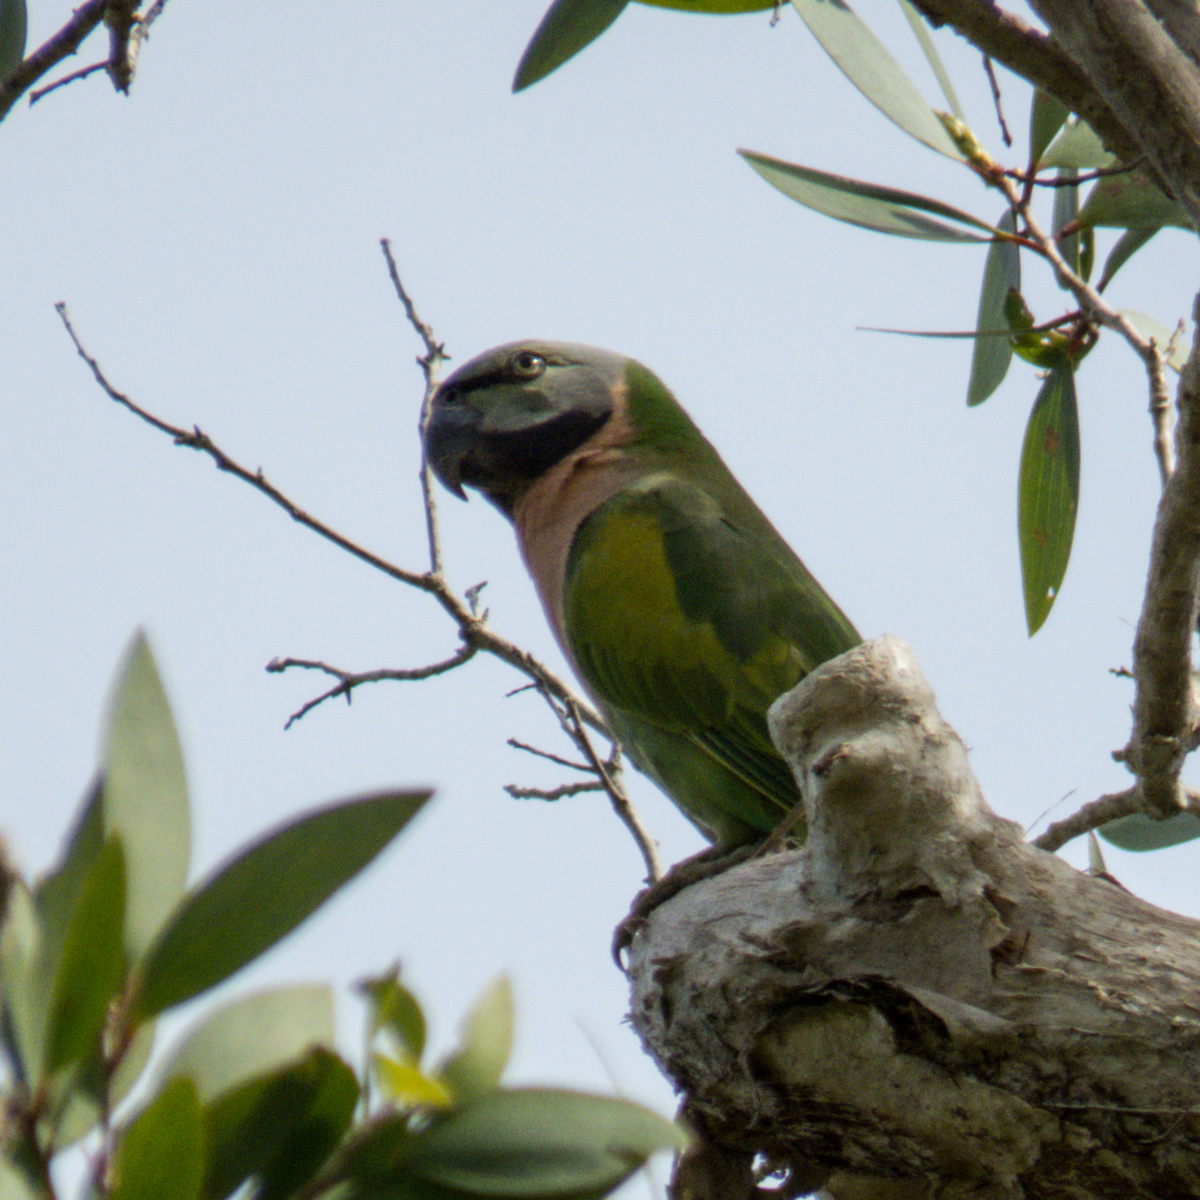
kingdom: Animalia
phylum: Chordata
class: Aves
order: Psittaciformes
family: Psittacidae
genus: Psittacula
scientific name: Psittacula alexandri
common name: Red-breasted parakeet
